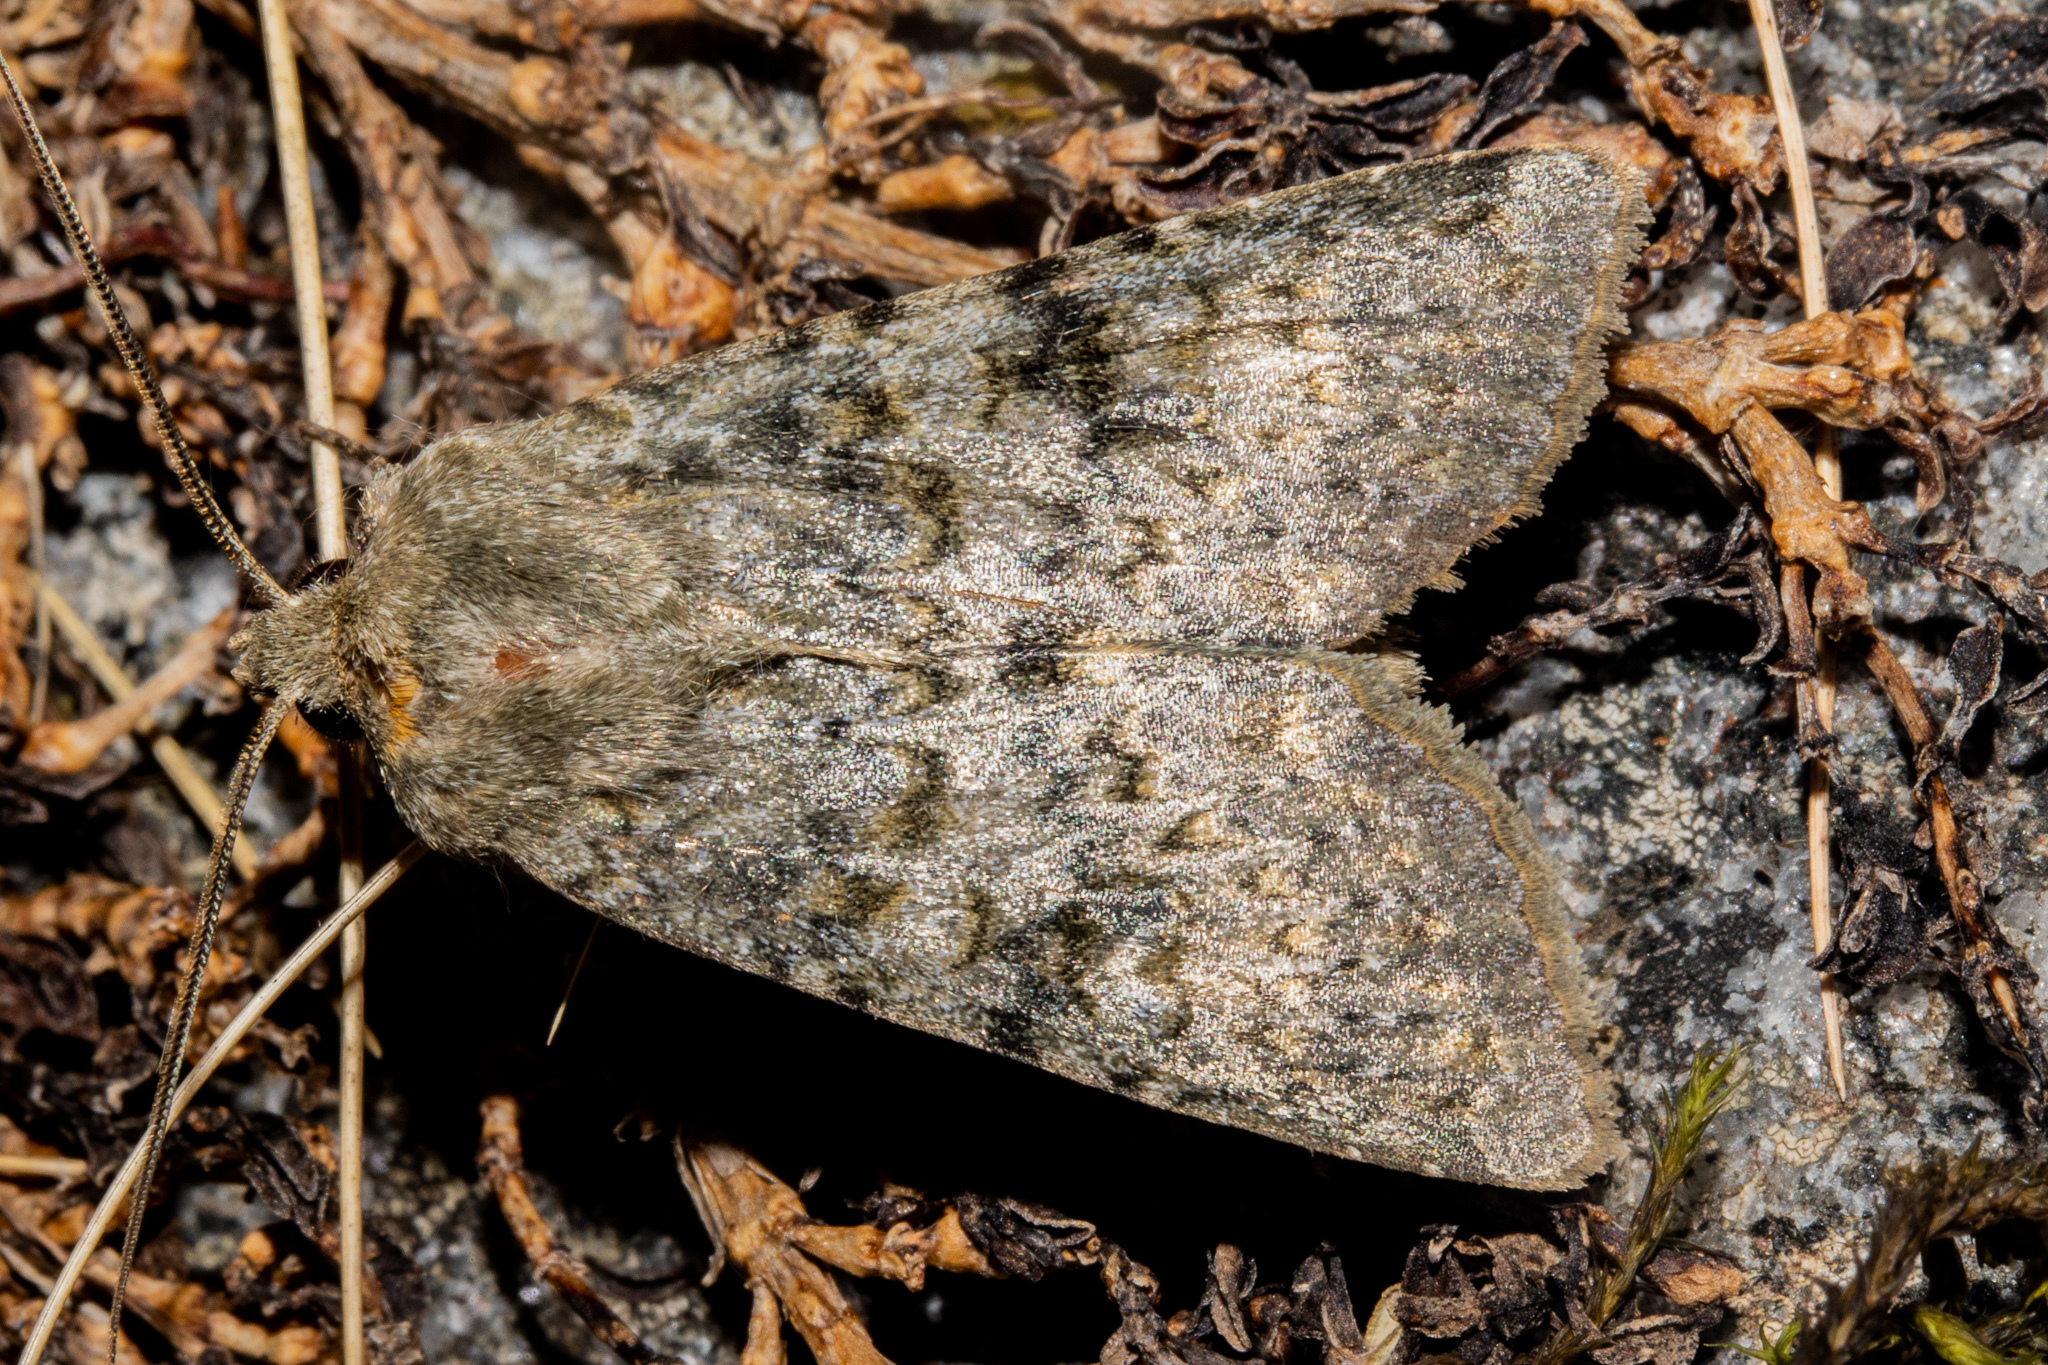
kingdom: Animalia
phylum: Arthropoda
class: Insecta
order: Lepidoptera
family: Noctuidae
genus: Ichneutica
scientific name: Ichneutica
